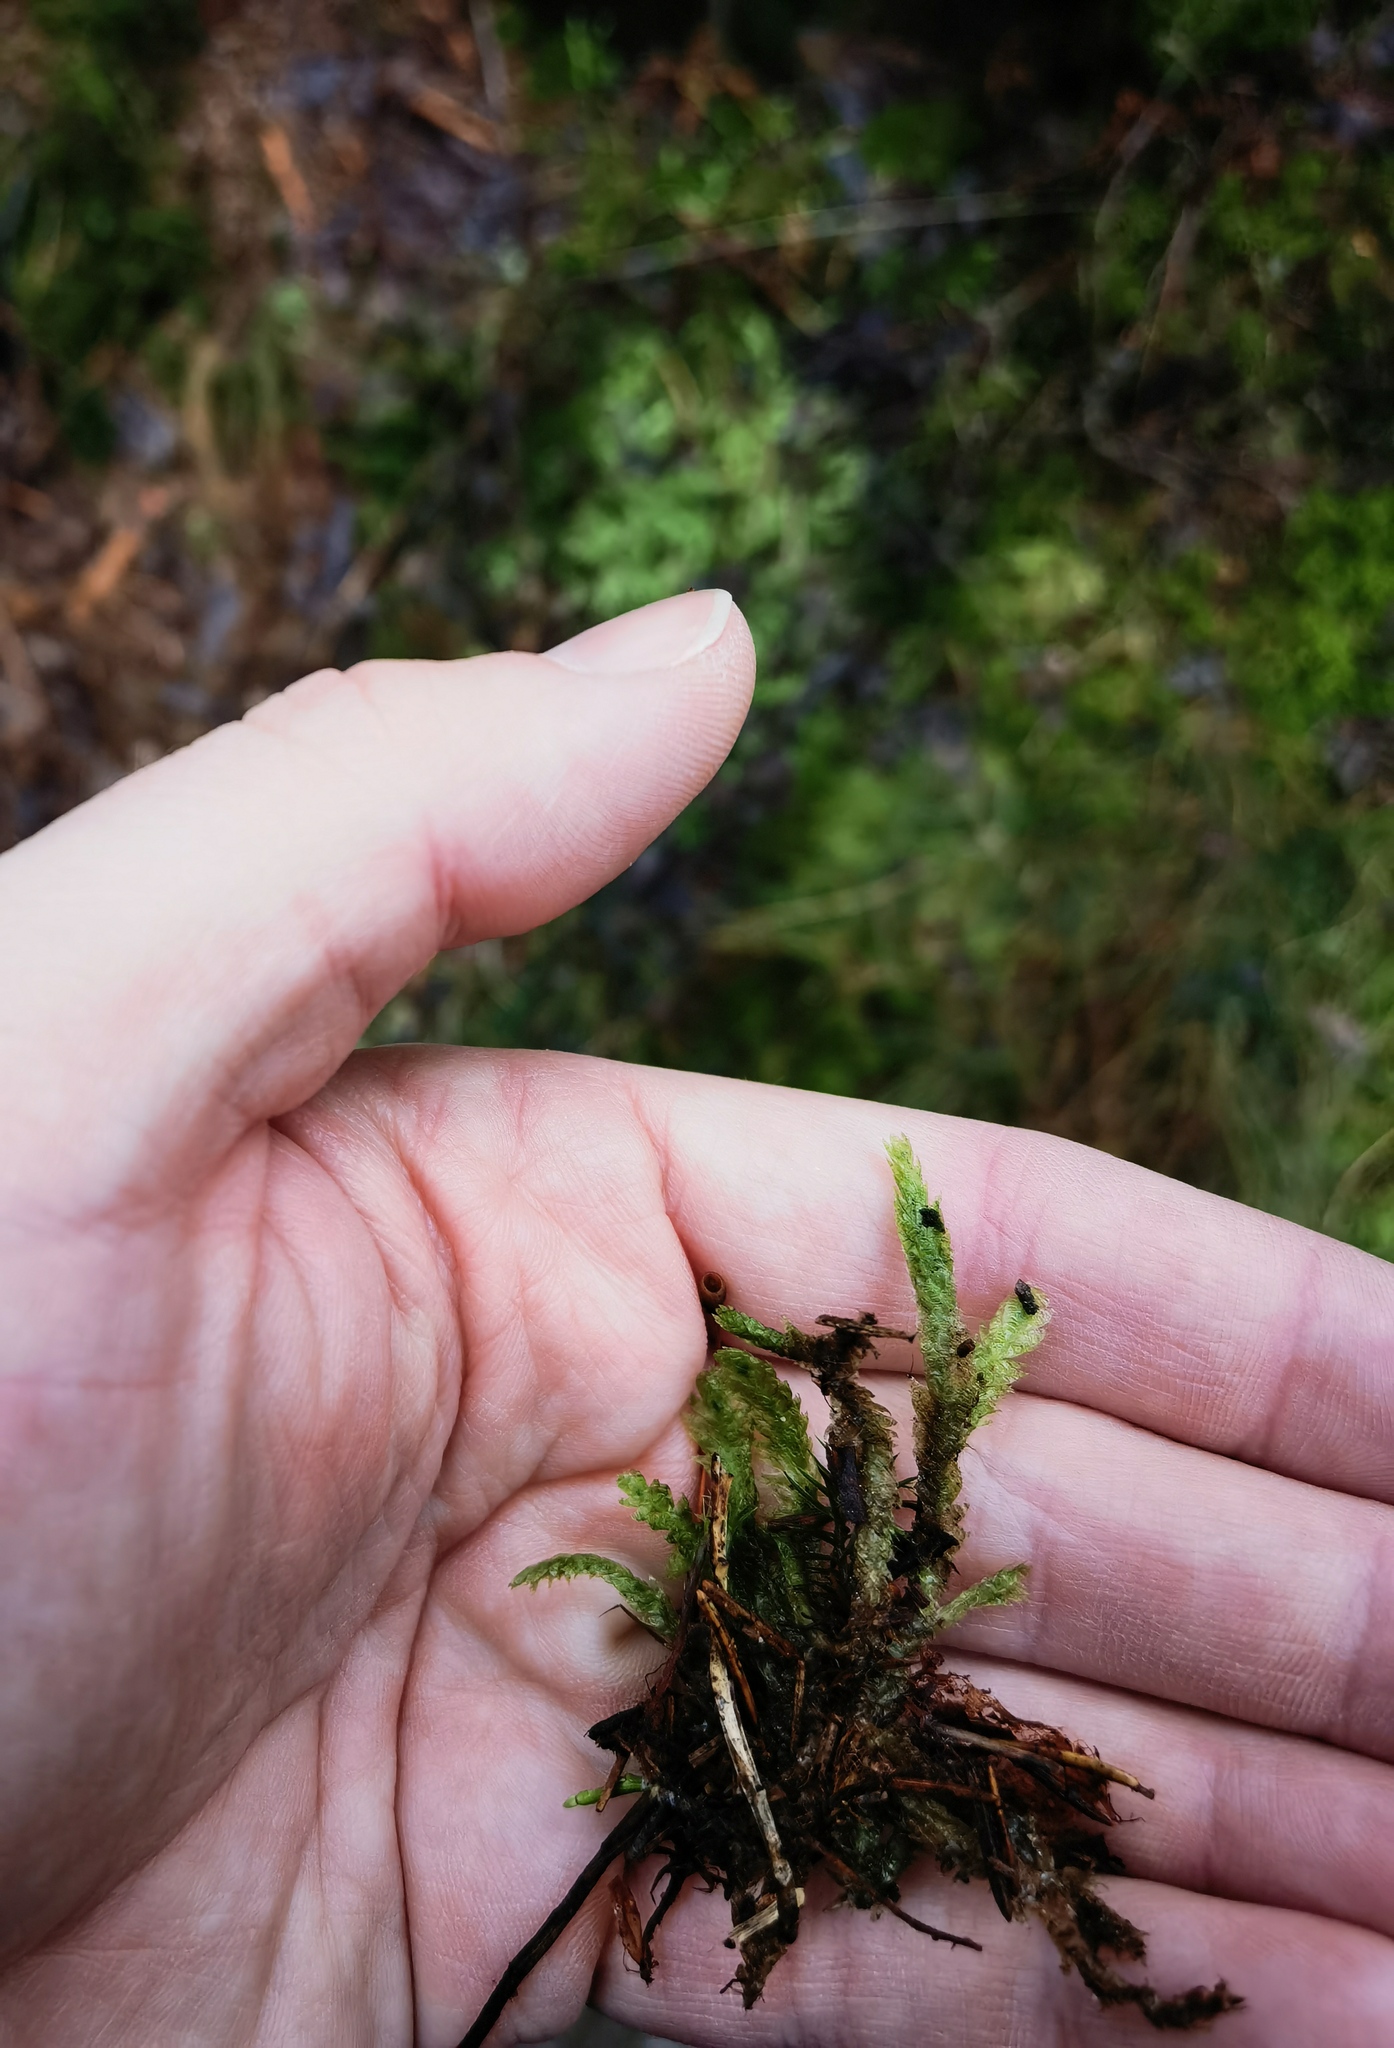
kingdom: Plantae
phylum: Bryophyta
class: Bryopsida
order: Hypnales
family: Plagiotheciaceae
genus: Plagiothecium
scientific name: Plagiothecium undulatum
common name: Waved silk-moss
